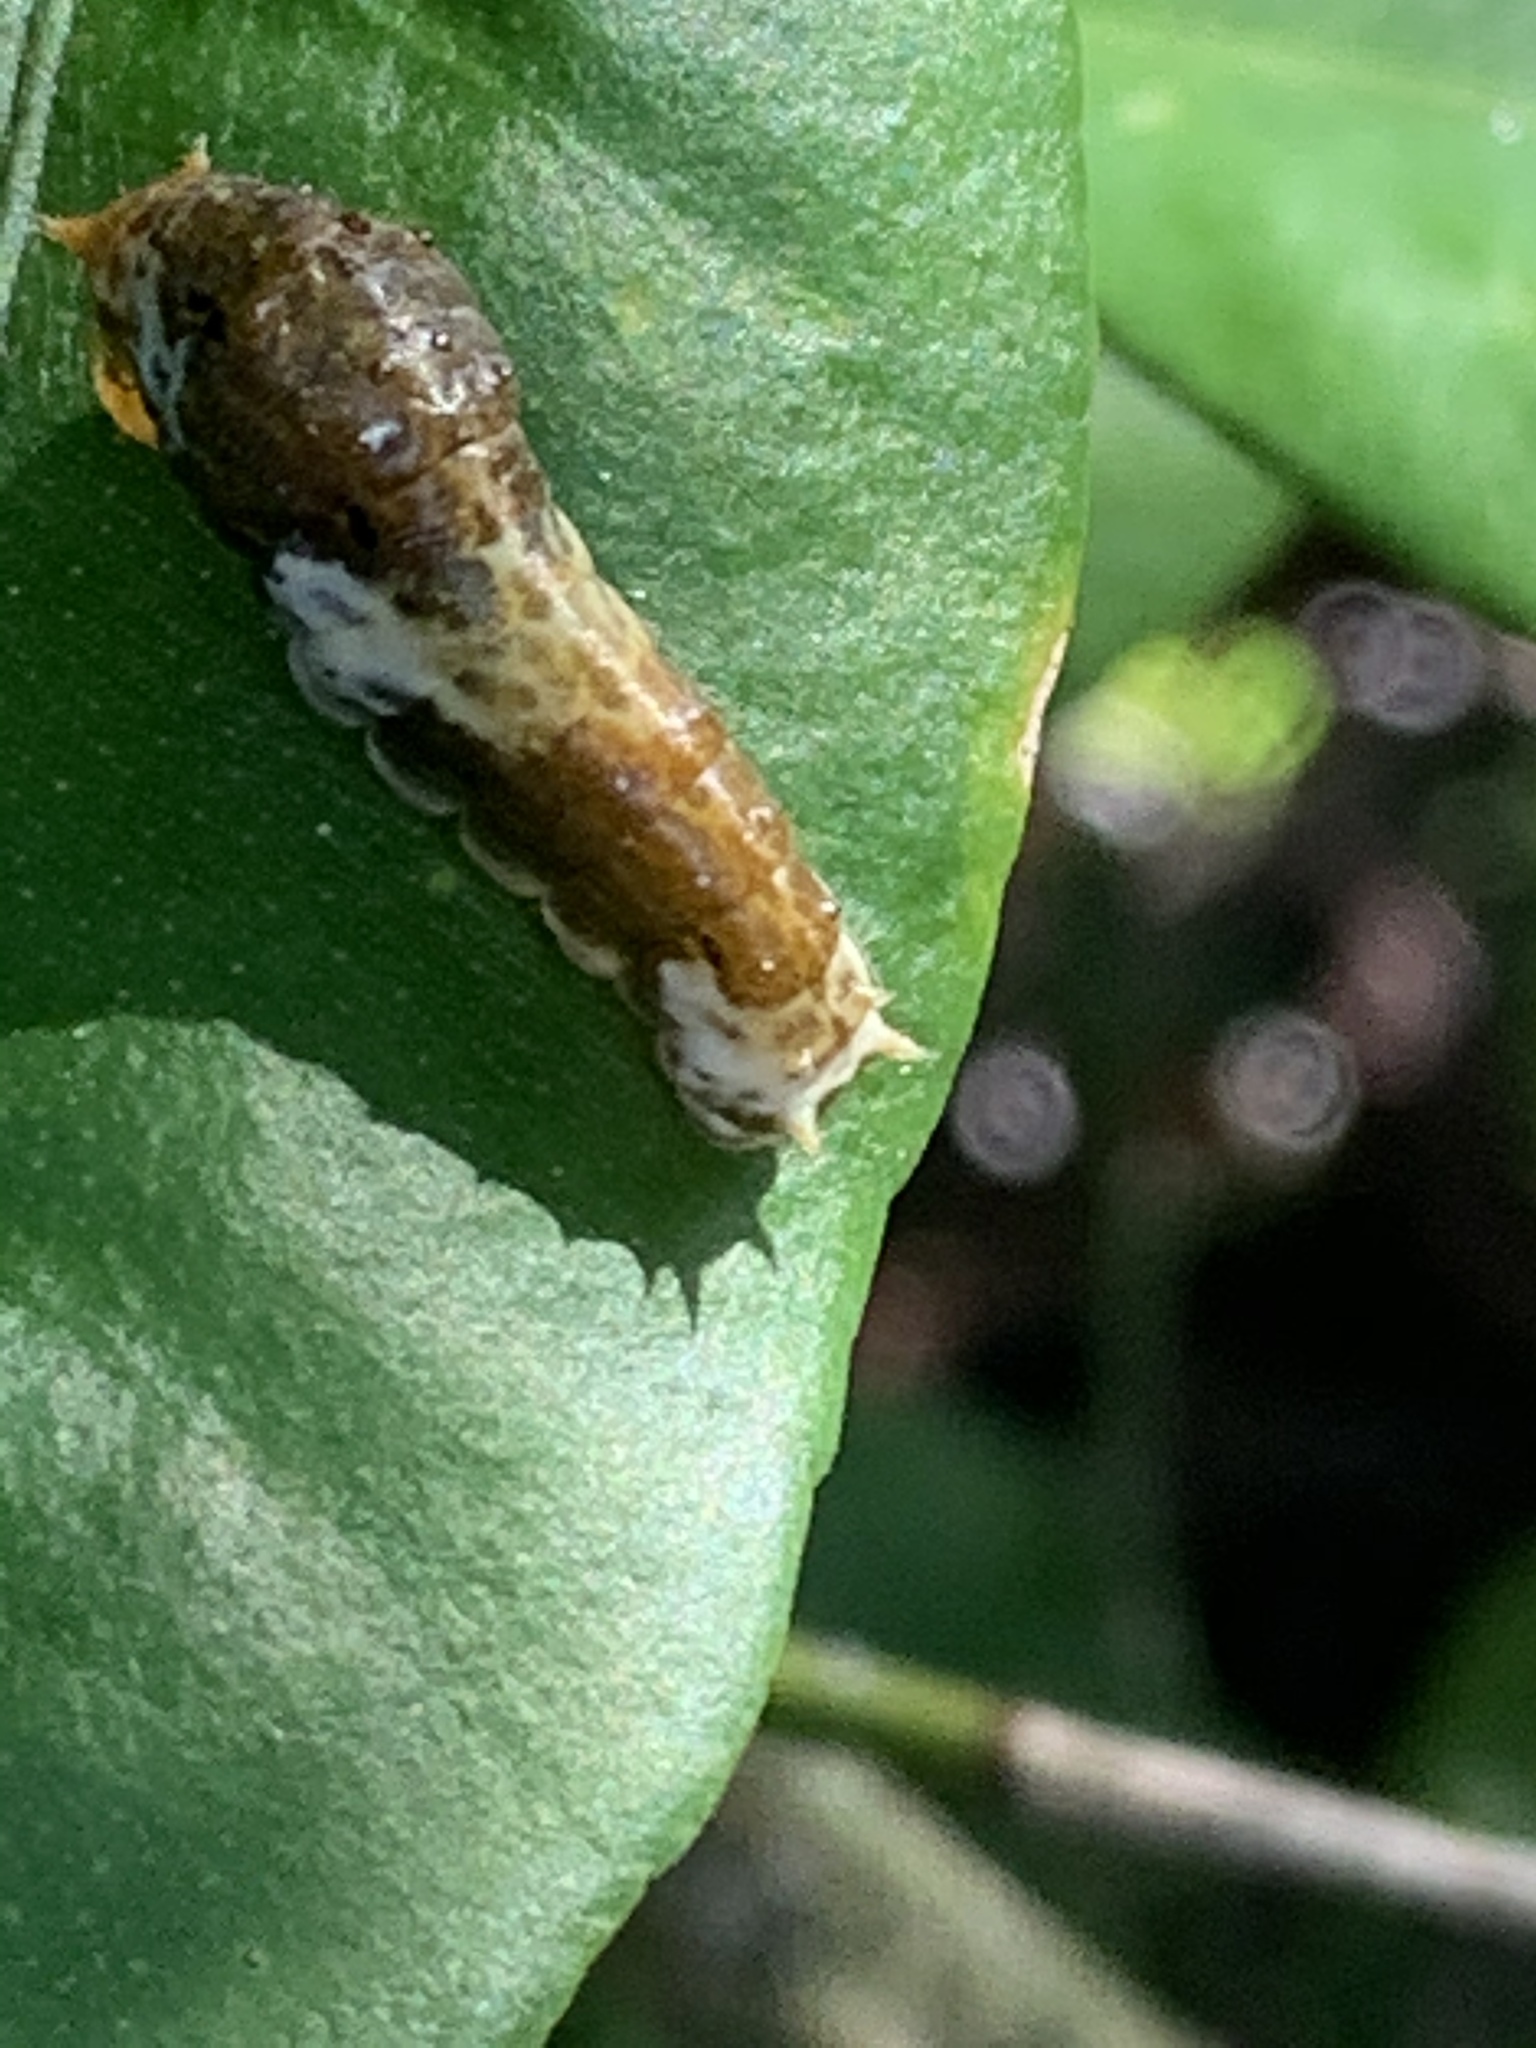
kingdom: Animalia
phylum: Arthropoda
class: Insecta
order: Lepidoptera
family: Papilionidae
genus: Papilio
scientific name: Papilio polytes
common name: Common mormon
